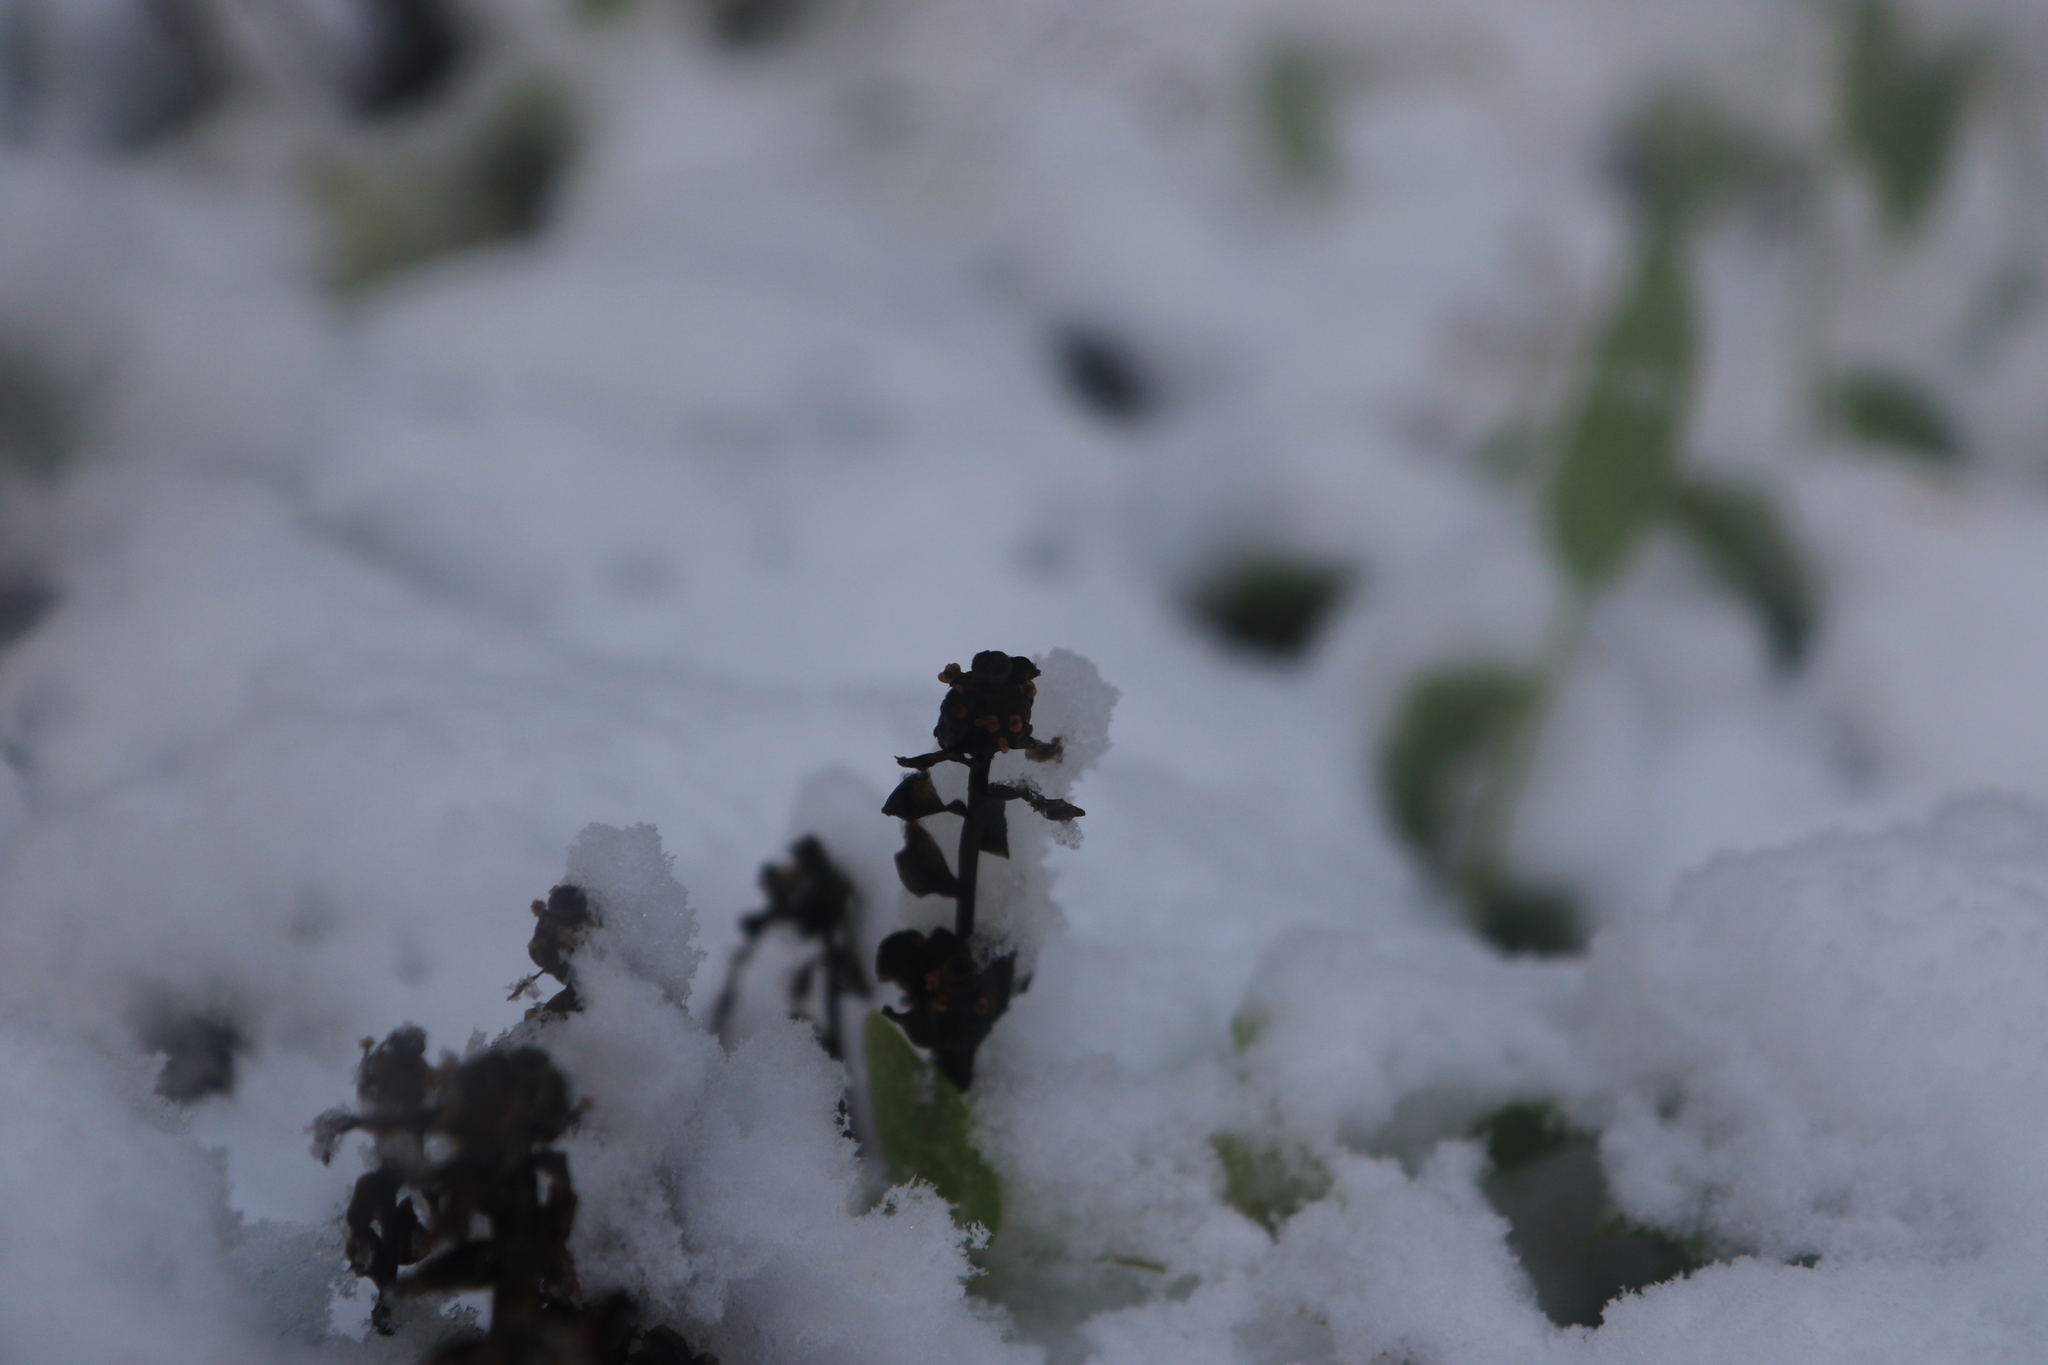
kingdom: Plantae
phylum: Tracheophyta
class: Magnoliopsida
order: Ericales
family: Ericaceae
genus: Monotropa
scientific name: Monotropa uniflora
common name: Convulsion root
